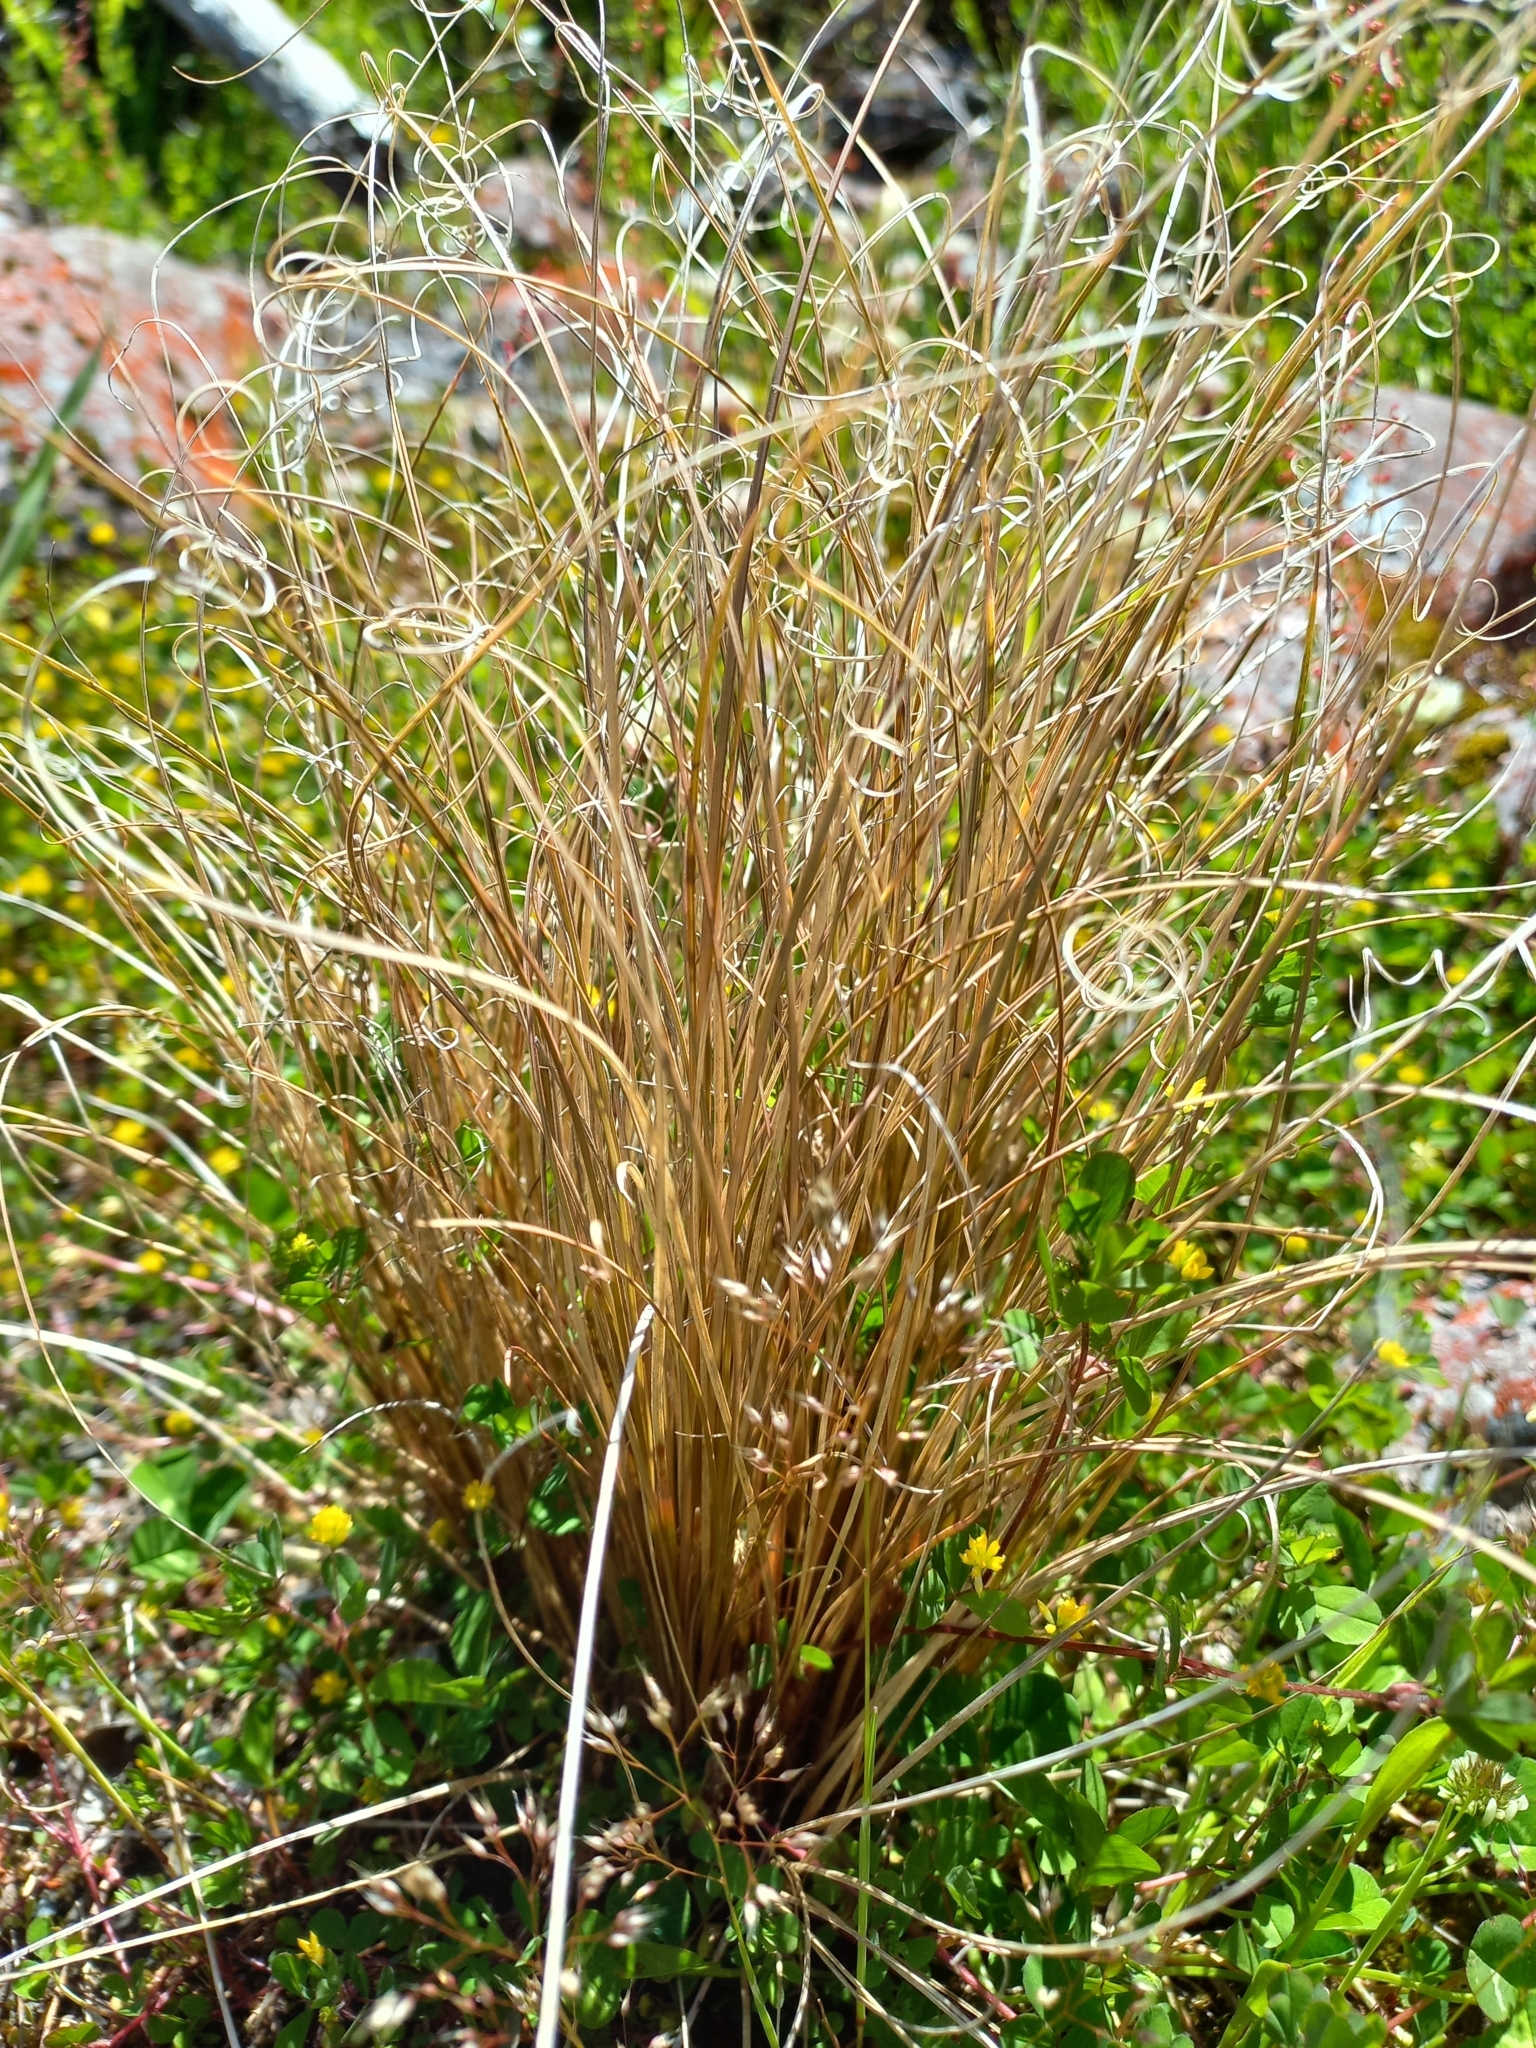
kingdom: Plantae
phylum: Tracheophyta
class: Liliopsida
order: Poales
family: Cyperaceae
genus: Carex
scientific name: Carex comans
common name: Longwood tussock
